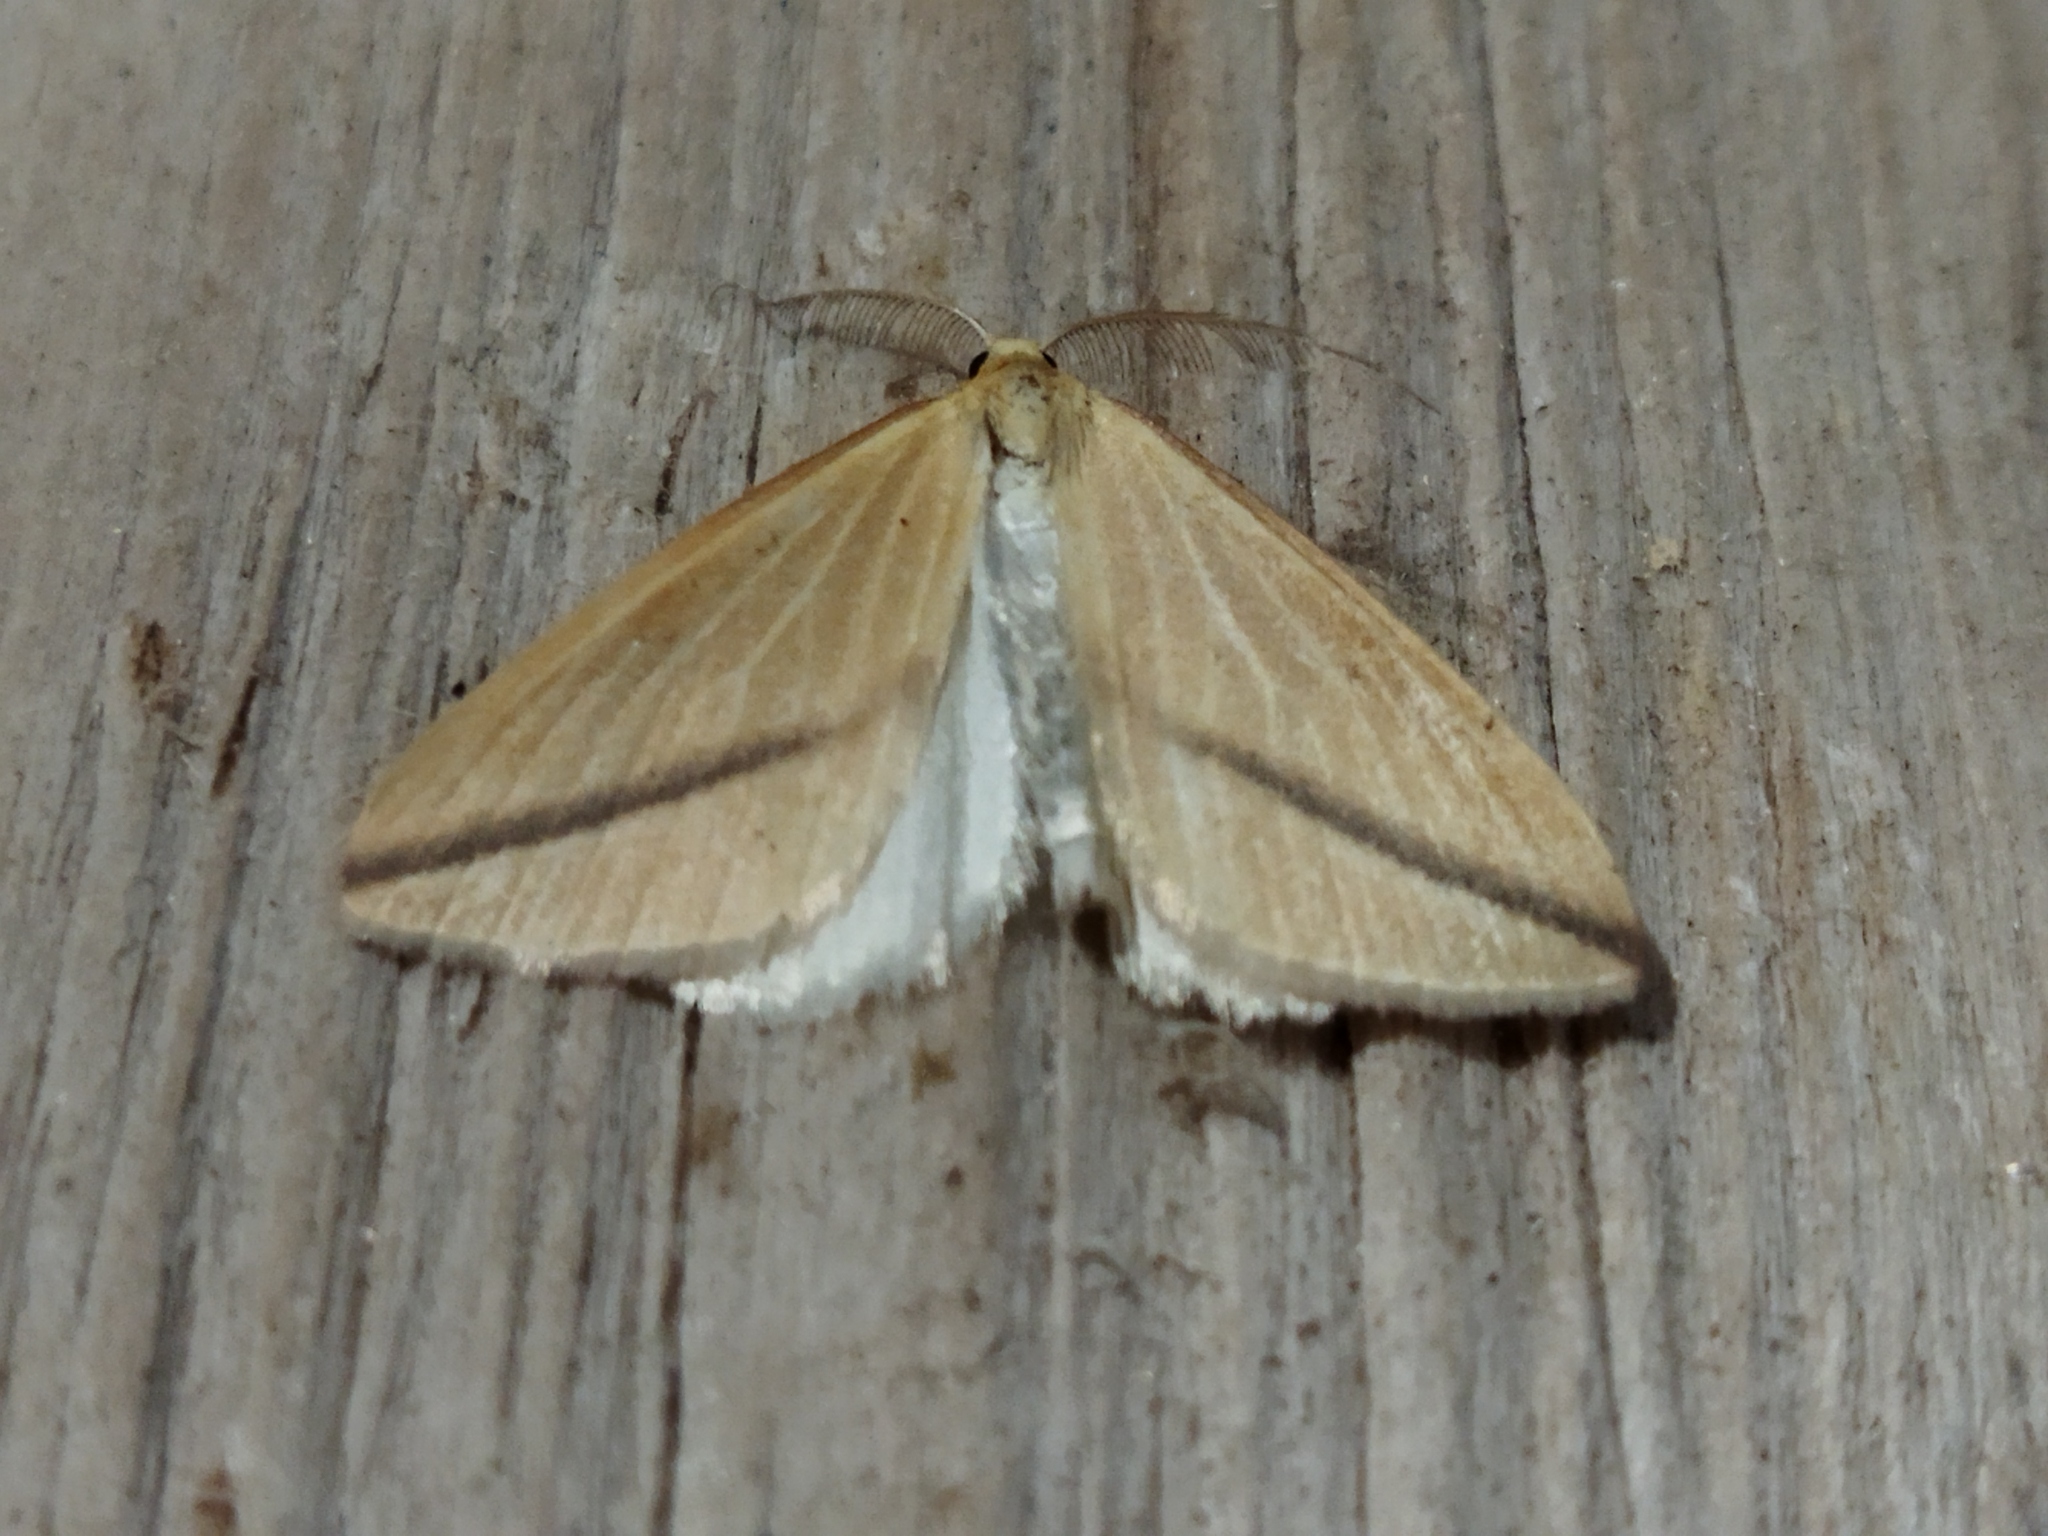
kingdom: Animalia
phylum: Arthropoda
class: Insecta
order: Lepidoptera
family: Geometridae
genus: Rhodometra
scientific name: Rhodometra sacraria
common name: Vestal
